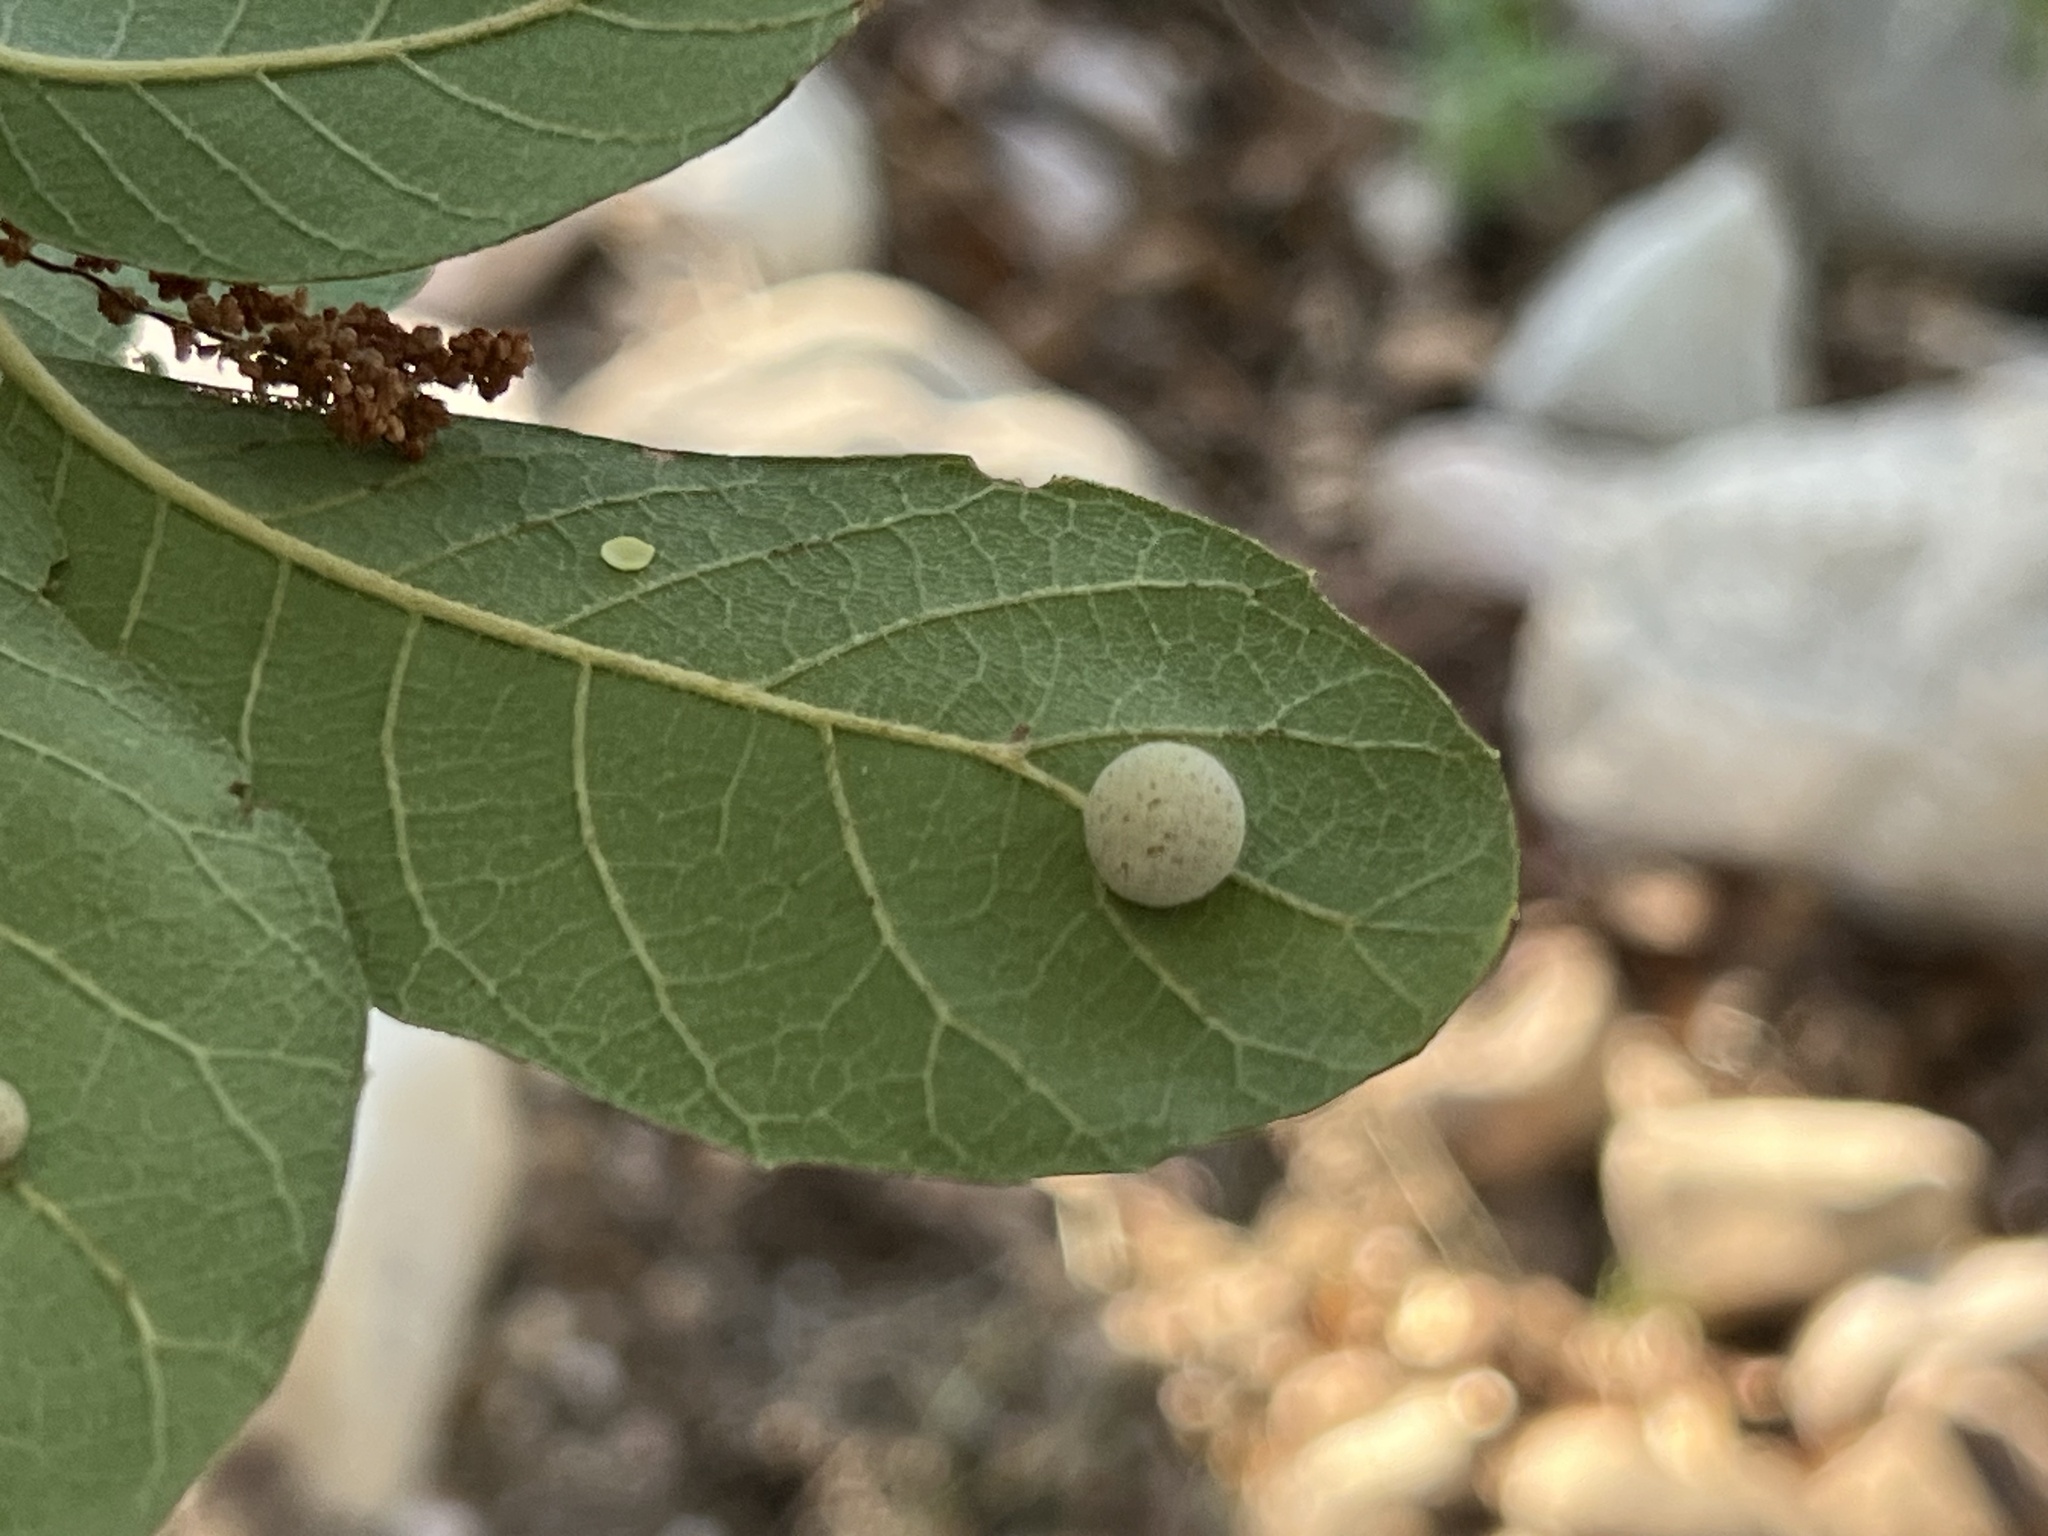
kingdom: Animalia
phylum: Arthropoda
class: Insecta
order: Hymenoptera
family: Cynipidae
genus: Cynips
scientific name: Cynips
